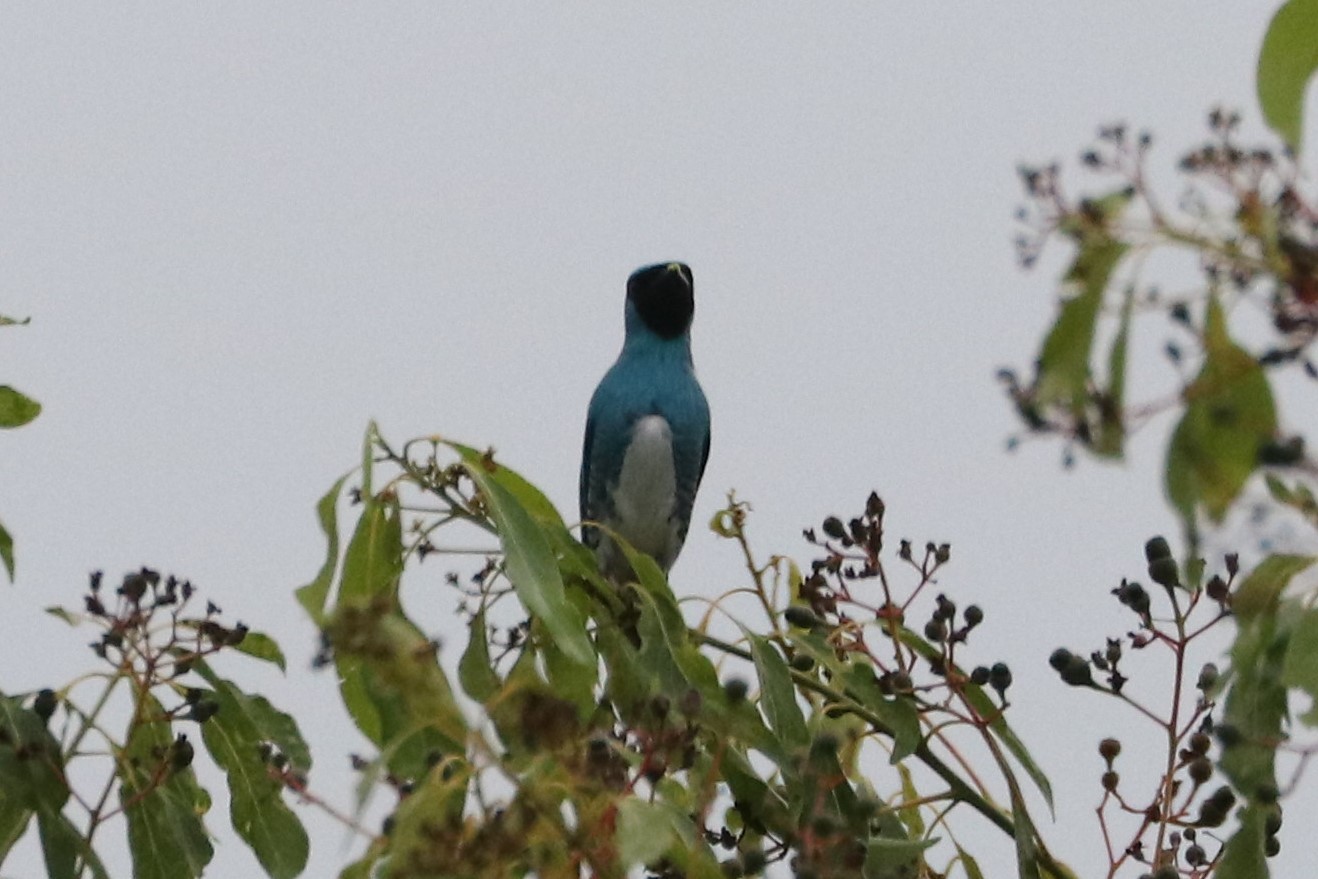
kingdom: Animalia
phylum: Chordata
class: Aves
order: Passeriformes
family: Thraupidae
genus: Tersina
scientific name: Tersina viridis
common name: Swallow tanager
